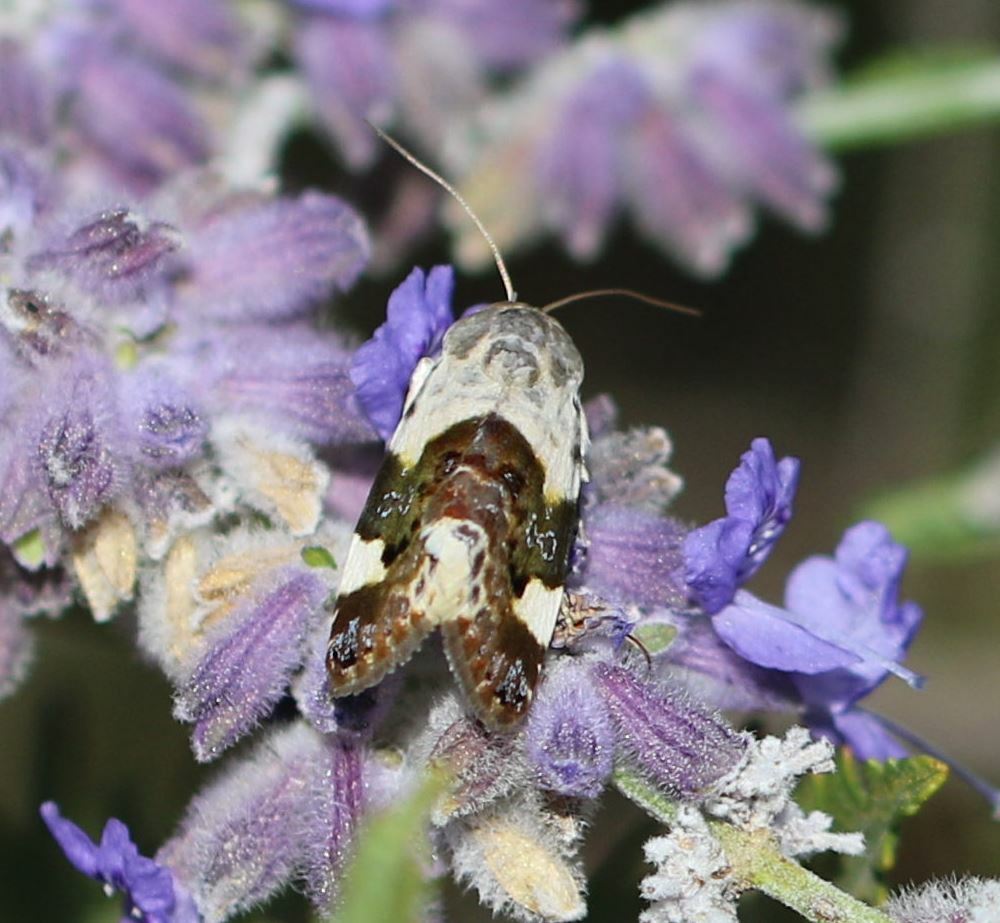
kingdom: Animalia
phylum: Arthropoda
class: Insecta
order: Lepidoptera
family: Noctuidae
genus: Acontia
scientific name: Acontia lucida
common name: Pale shoulder
